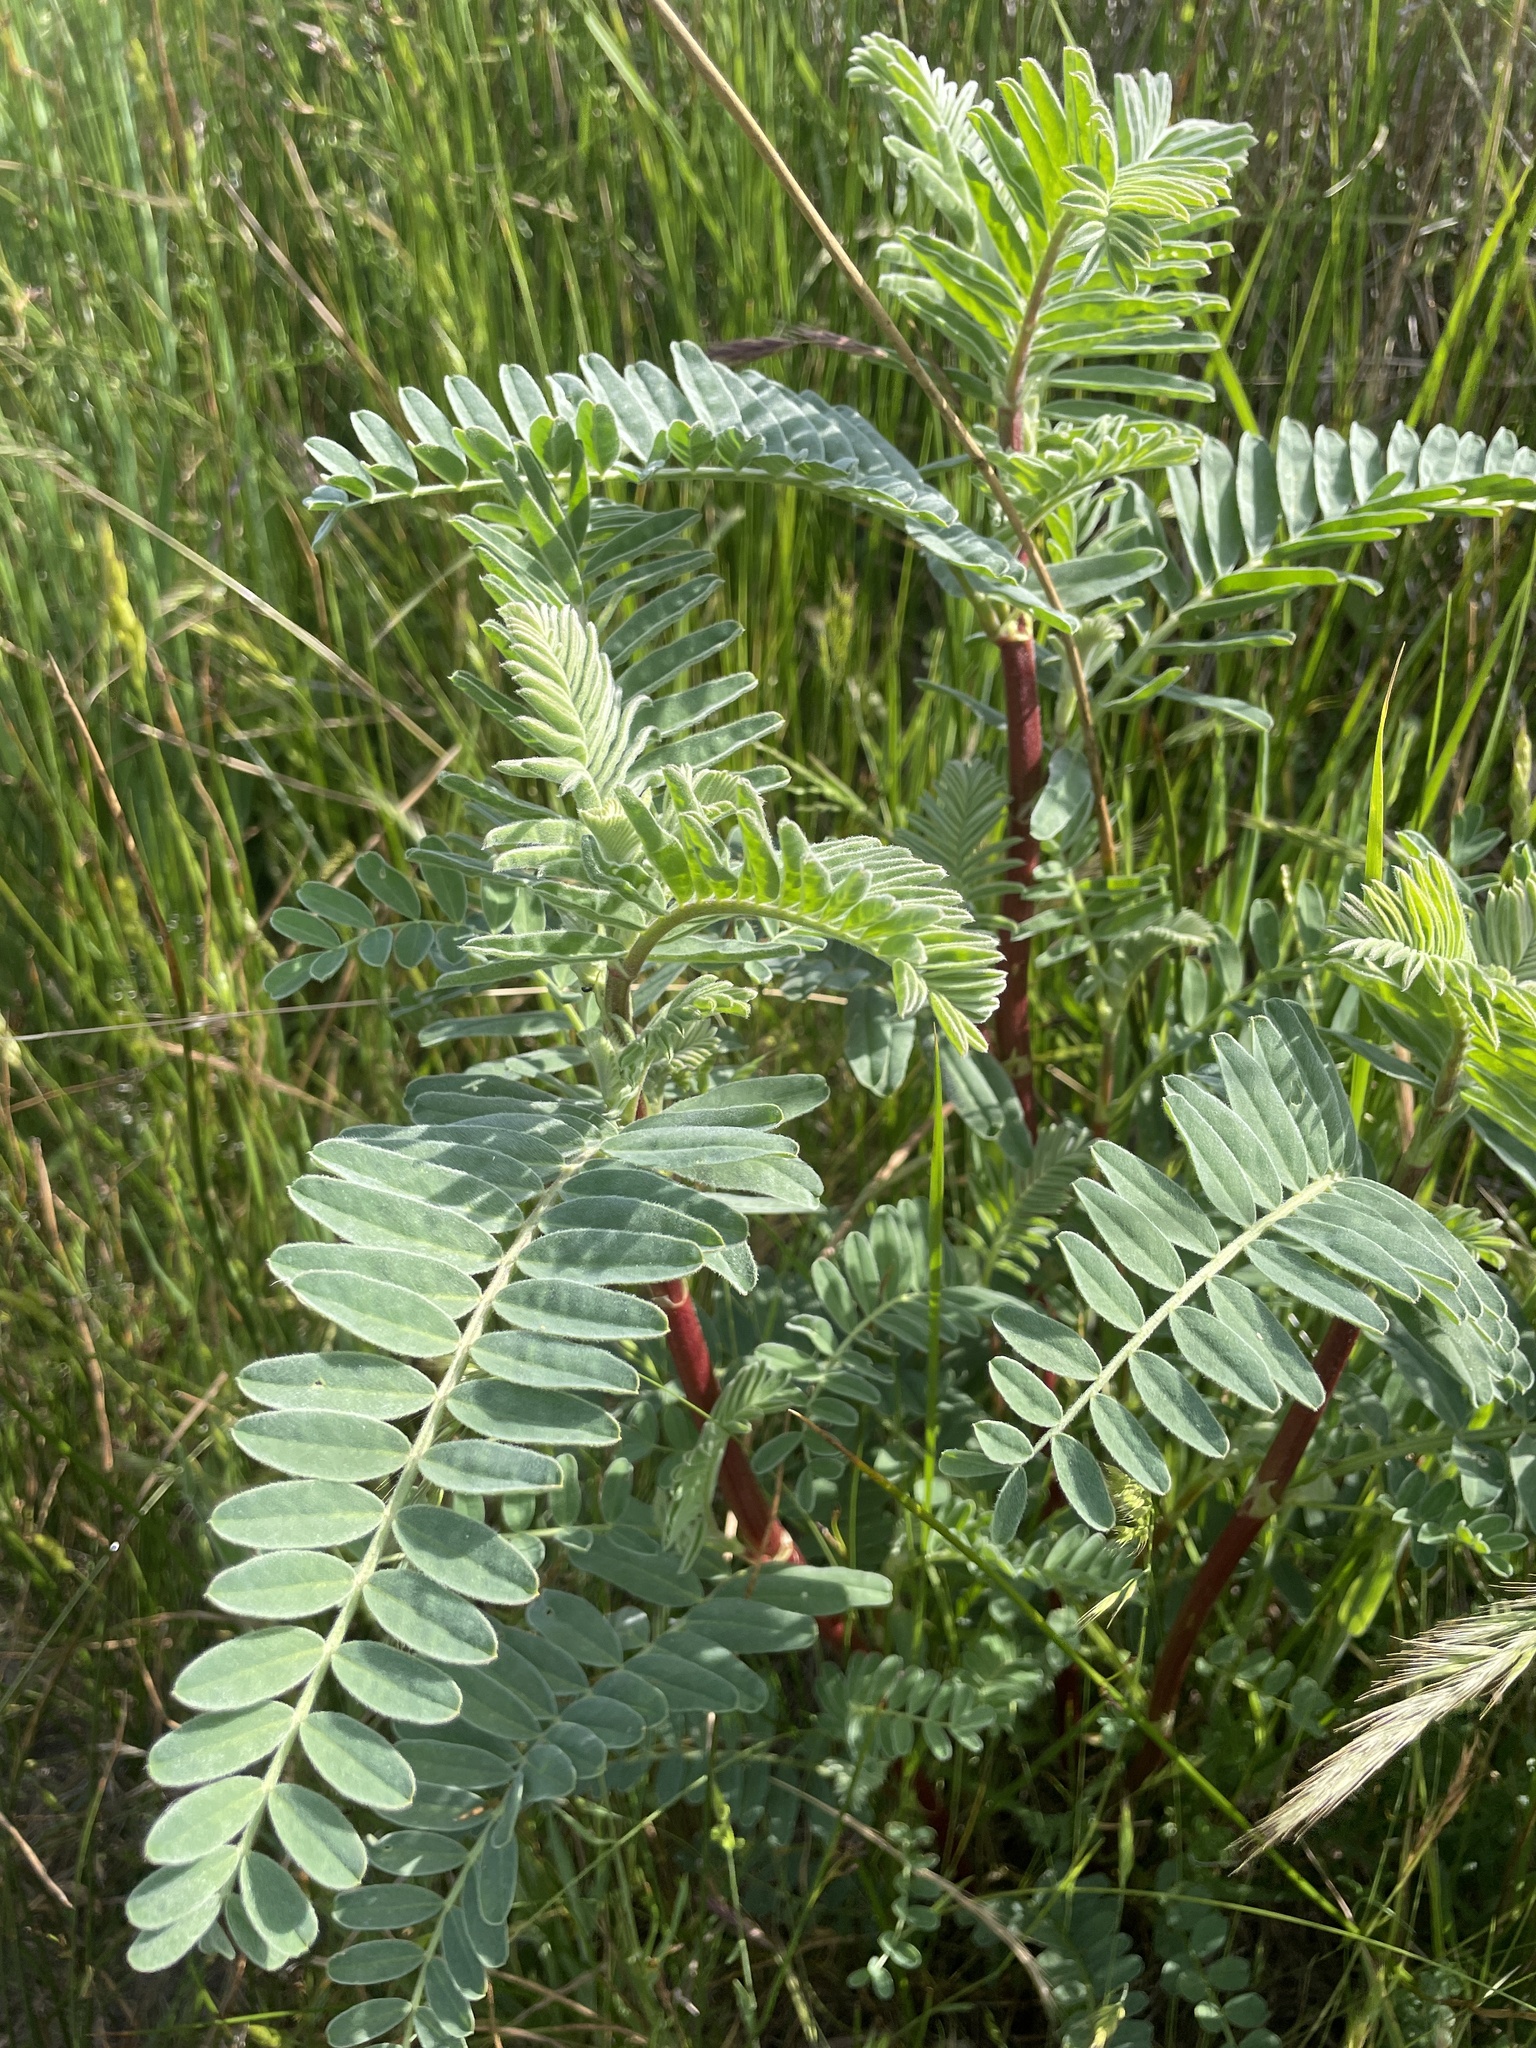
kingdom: Plantae
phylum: Tracheophyta
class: Magnoliopsida
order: Fabales
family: Fabaceae
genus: Astragalus
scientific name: Astragalus pycnostachyus
